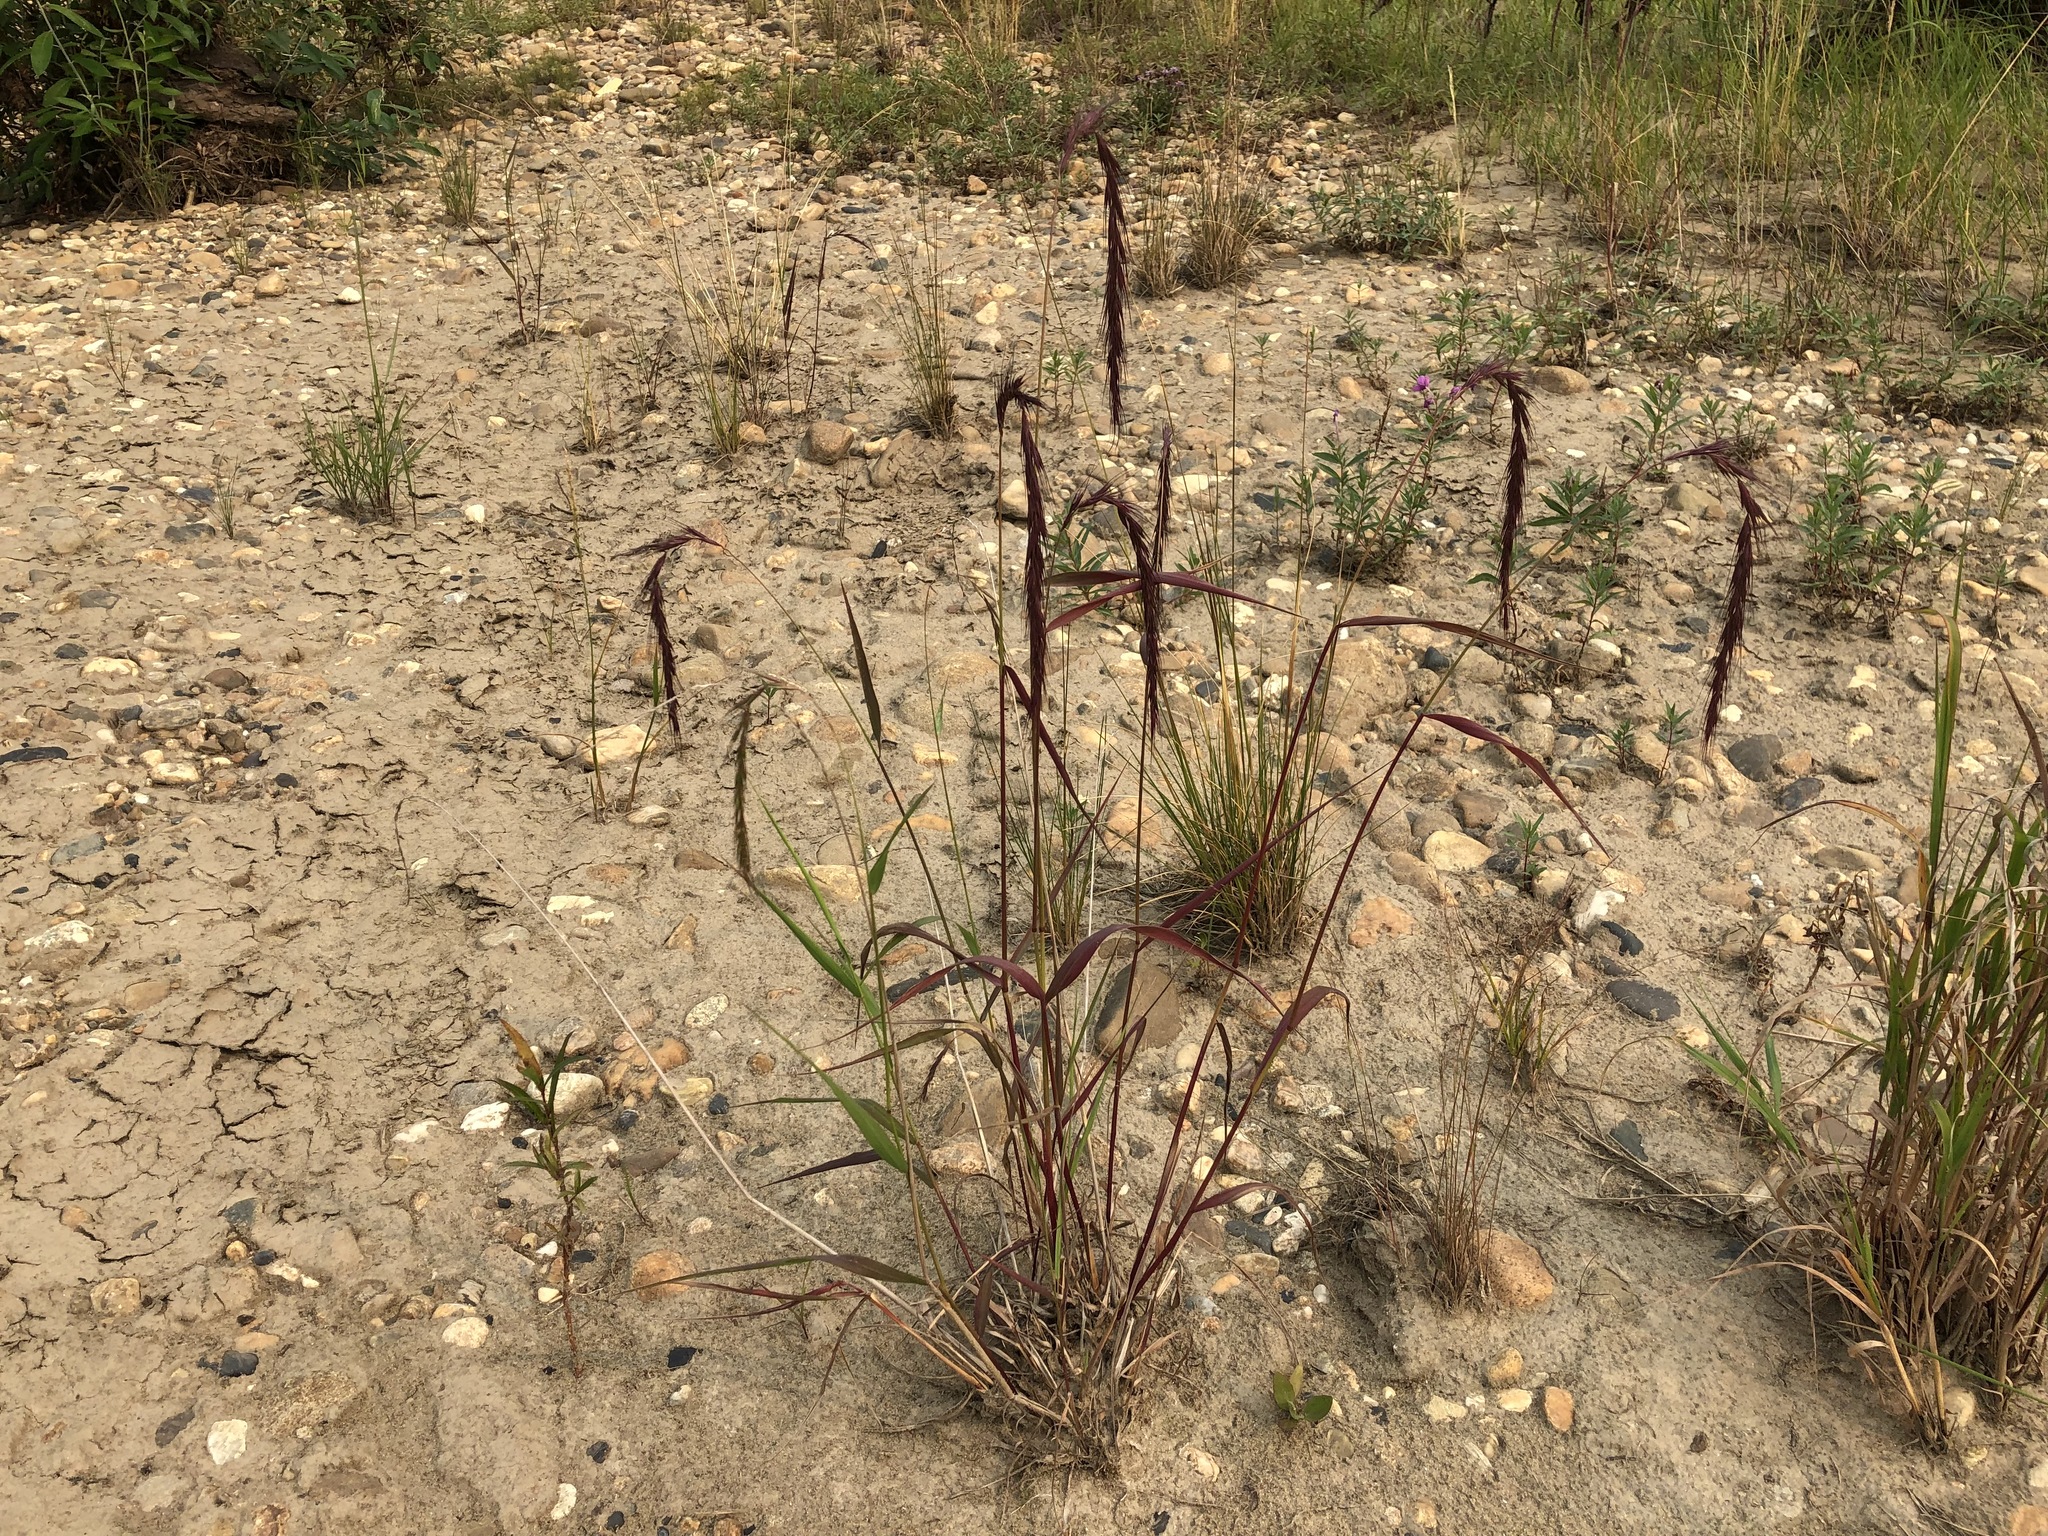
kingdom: Plantae
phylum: Tracheophyta
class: Liliopsida
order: Poales
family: Poaceae
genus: Elymus
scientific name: Elymus sibiricus
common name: Siberian wildrye
